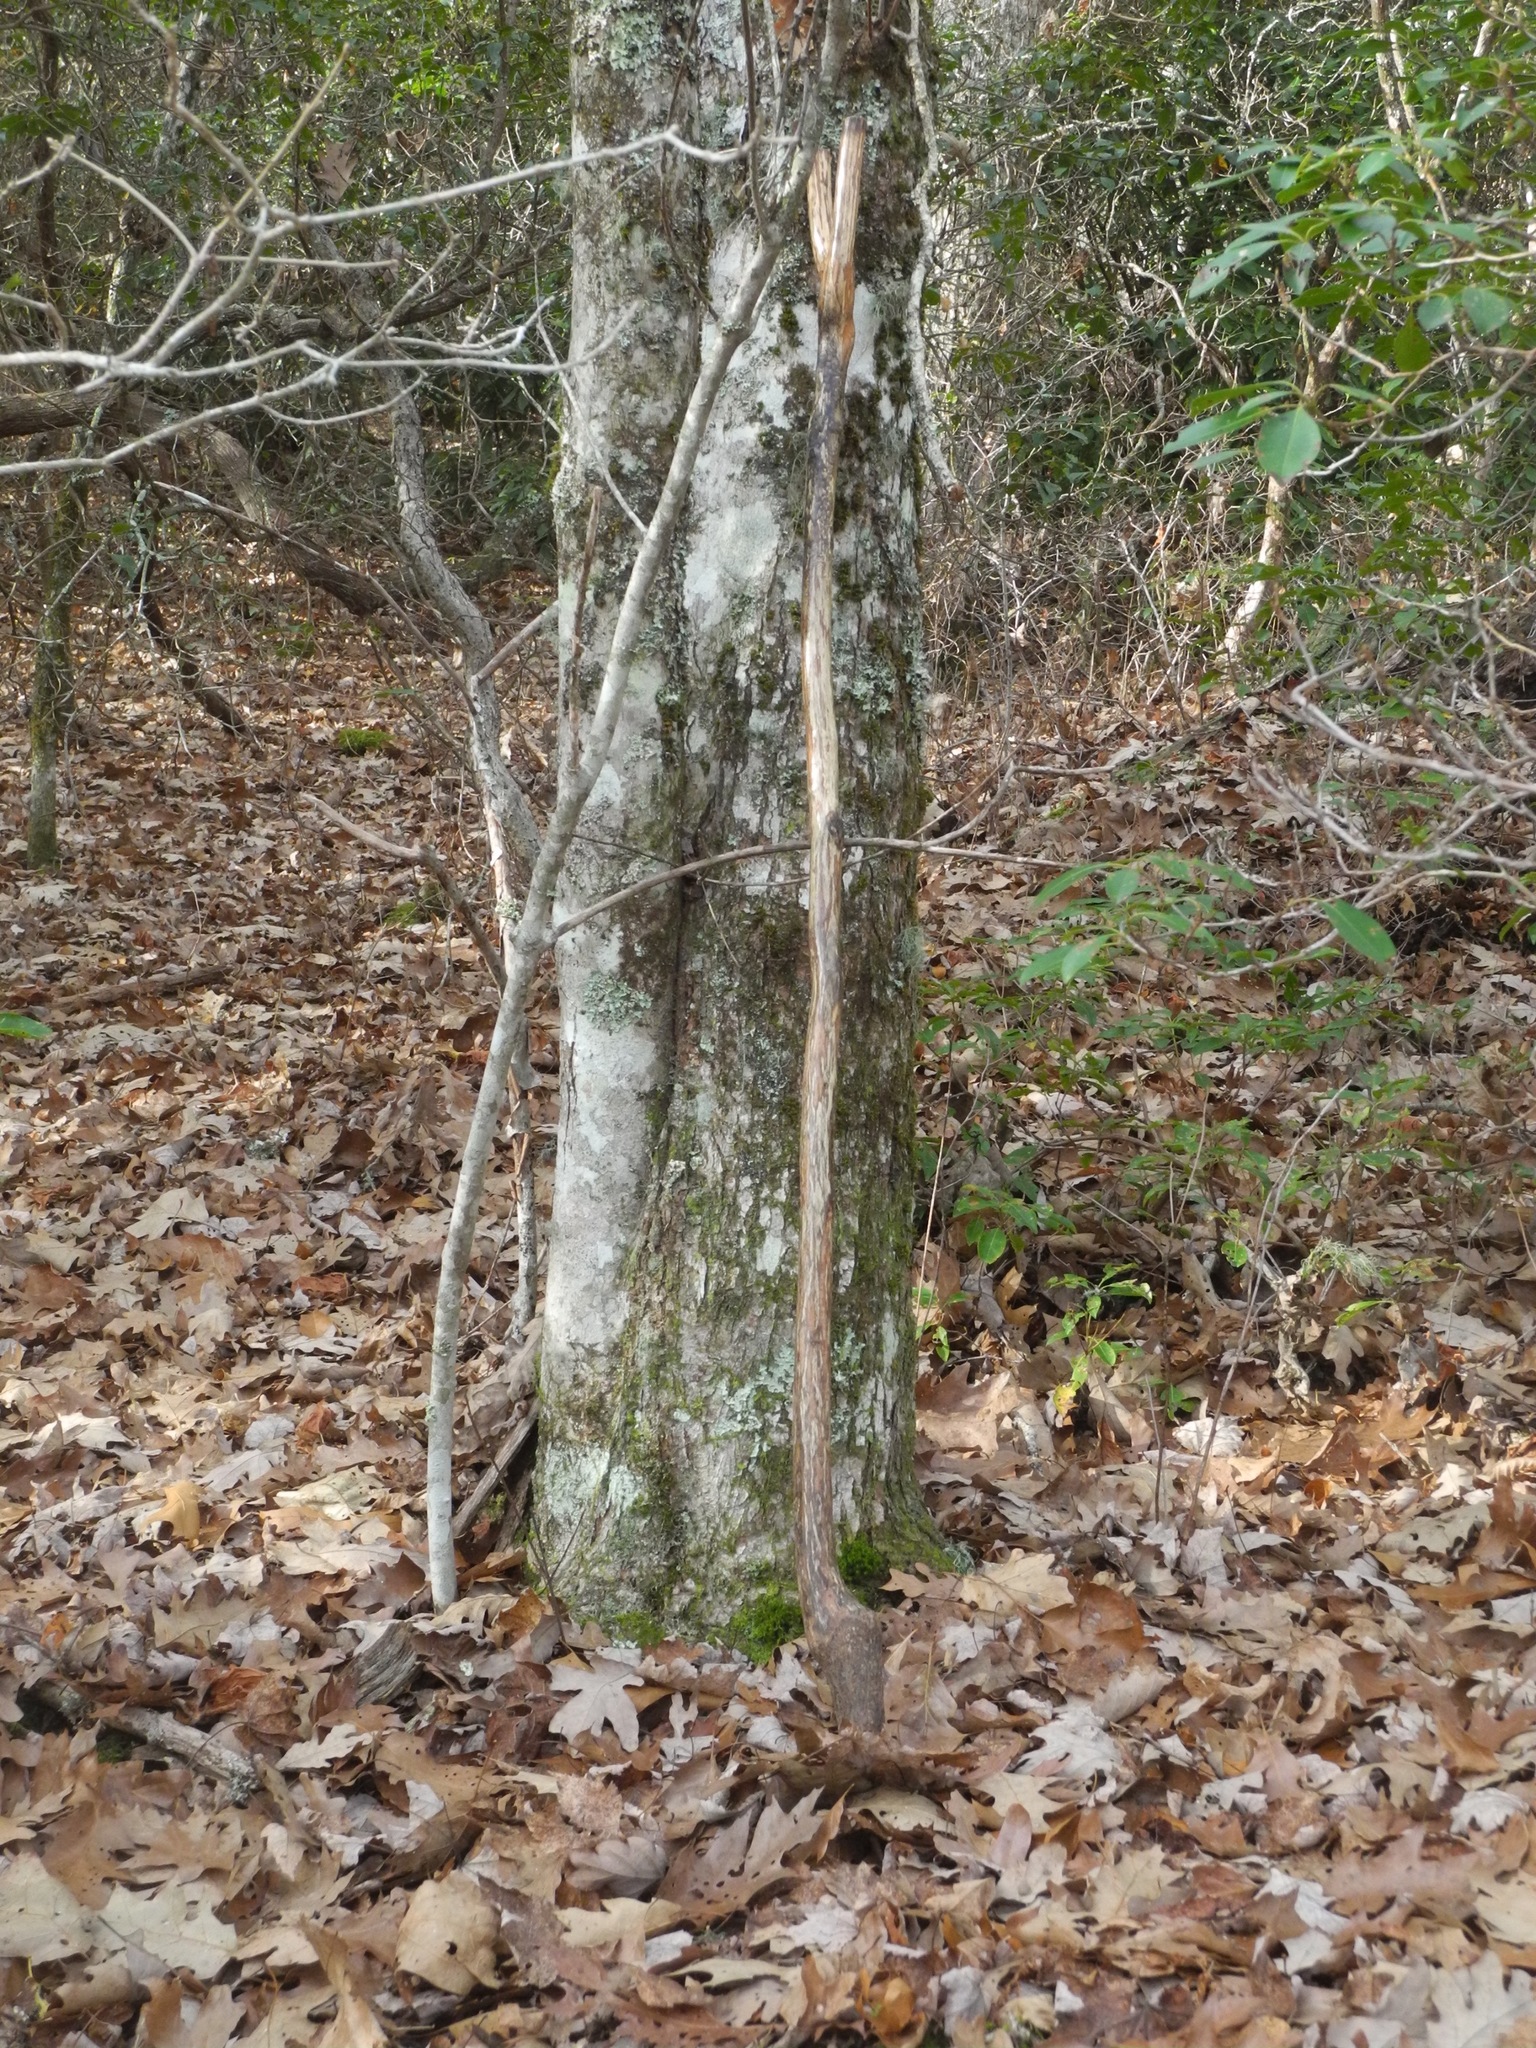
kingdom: Plantae
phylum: Tracheophyta
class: Magnoliopsida
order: Sapindales
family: Sapindaceae
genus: Acer
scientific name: Acer freemanii
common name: Freeman maple
